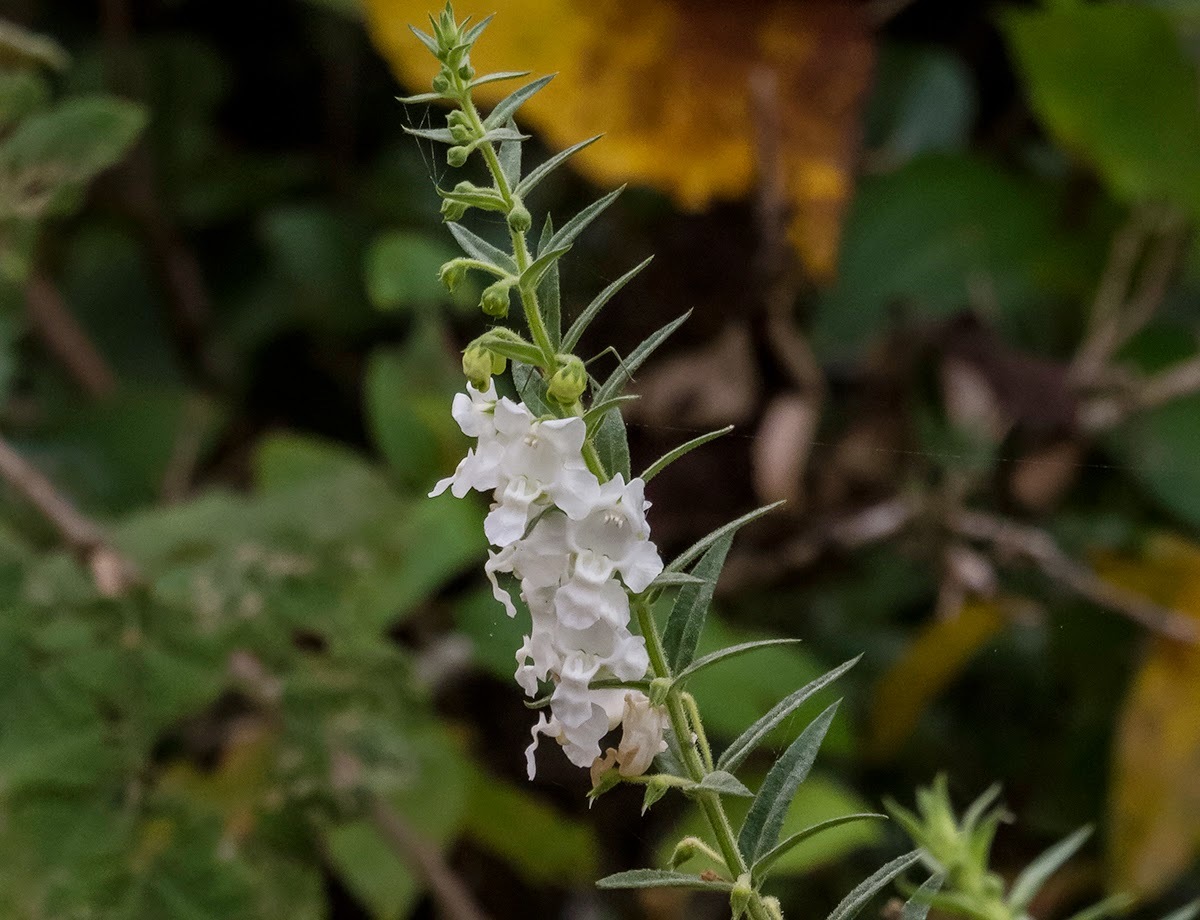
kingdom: Plantae
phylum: Tracheophyta
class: Magnoliopsida
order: Lamiales
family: Plantaginaceae
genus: Angelonia
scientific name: Angelonia salicariifolia
